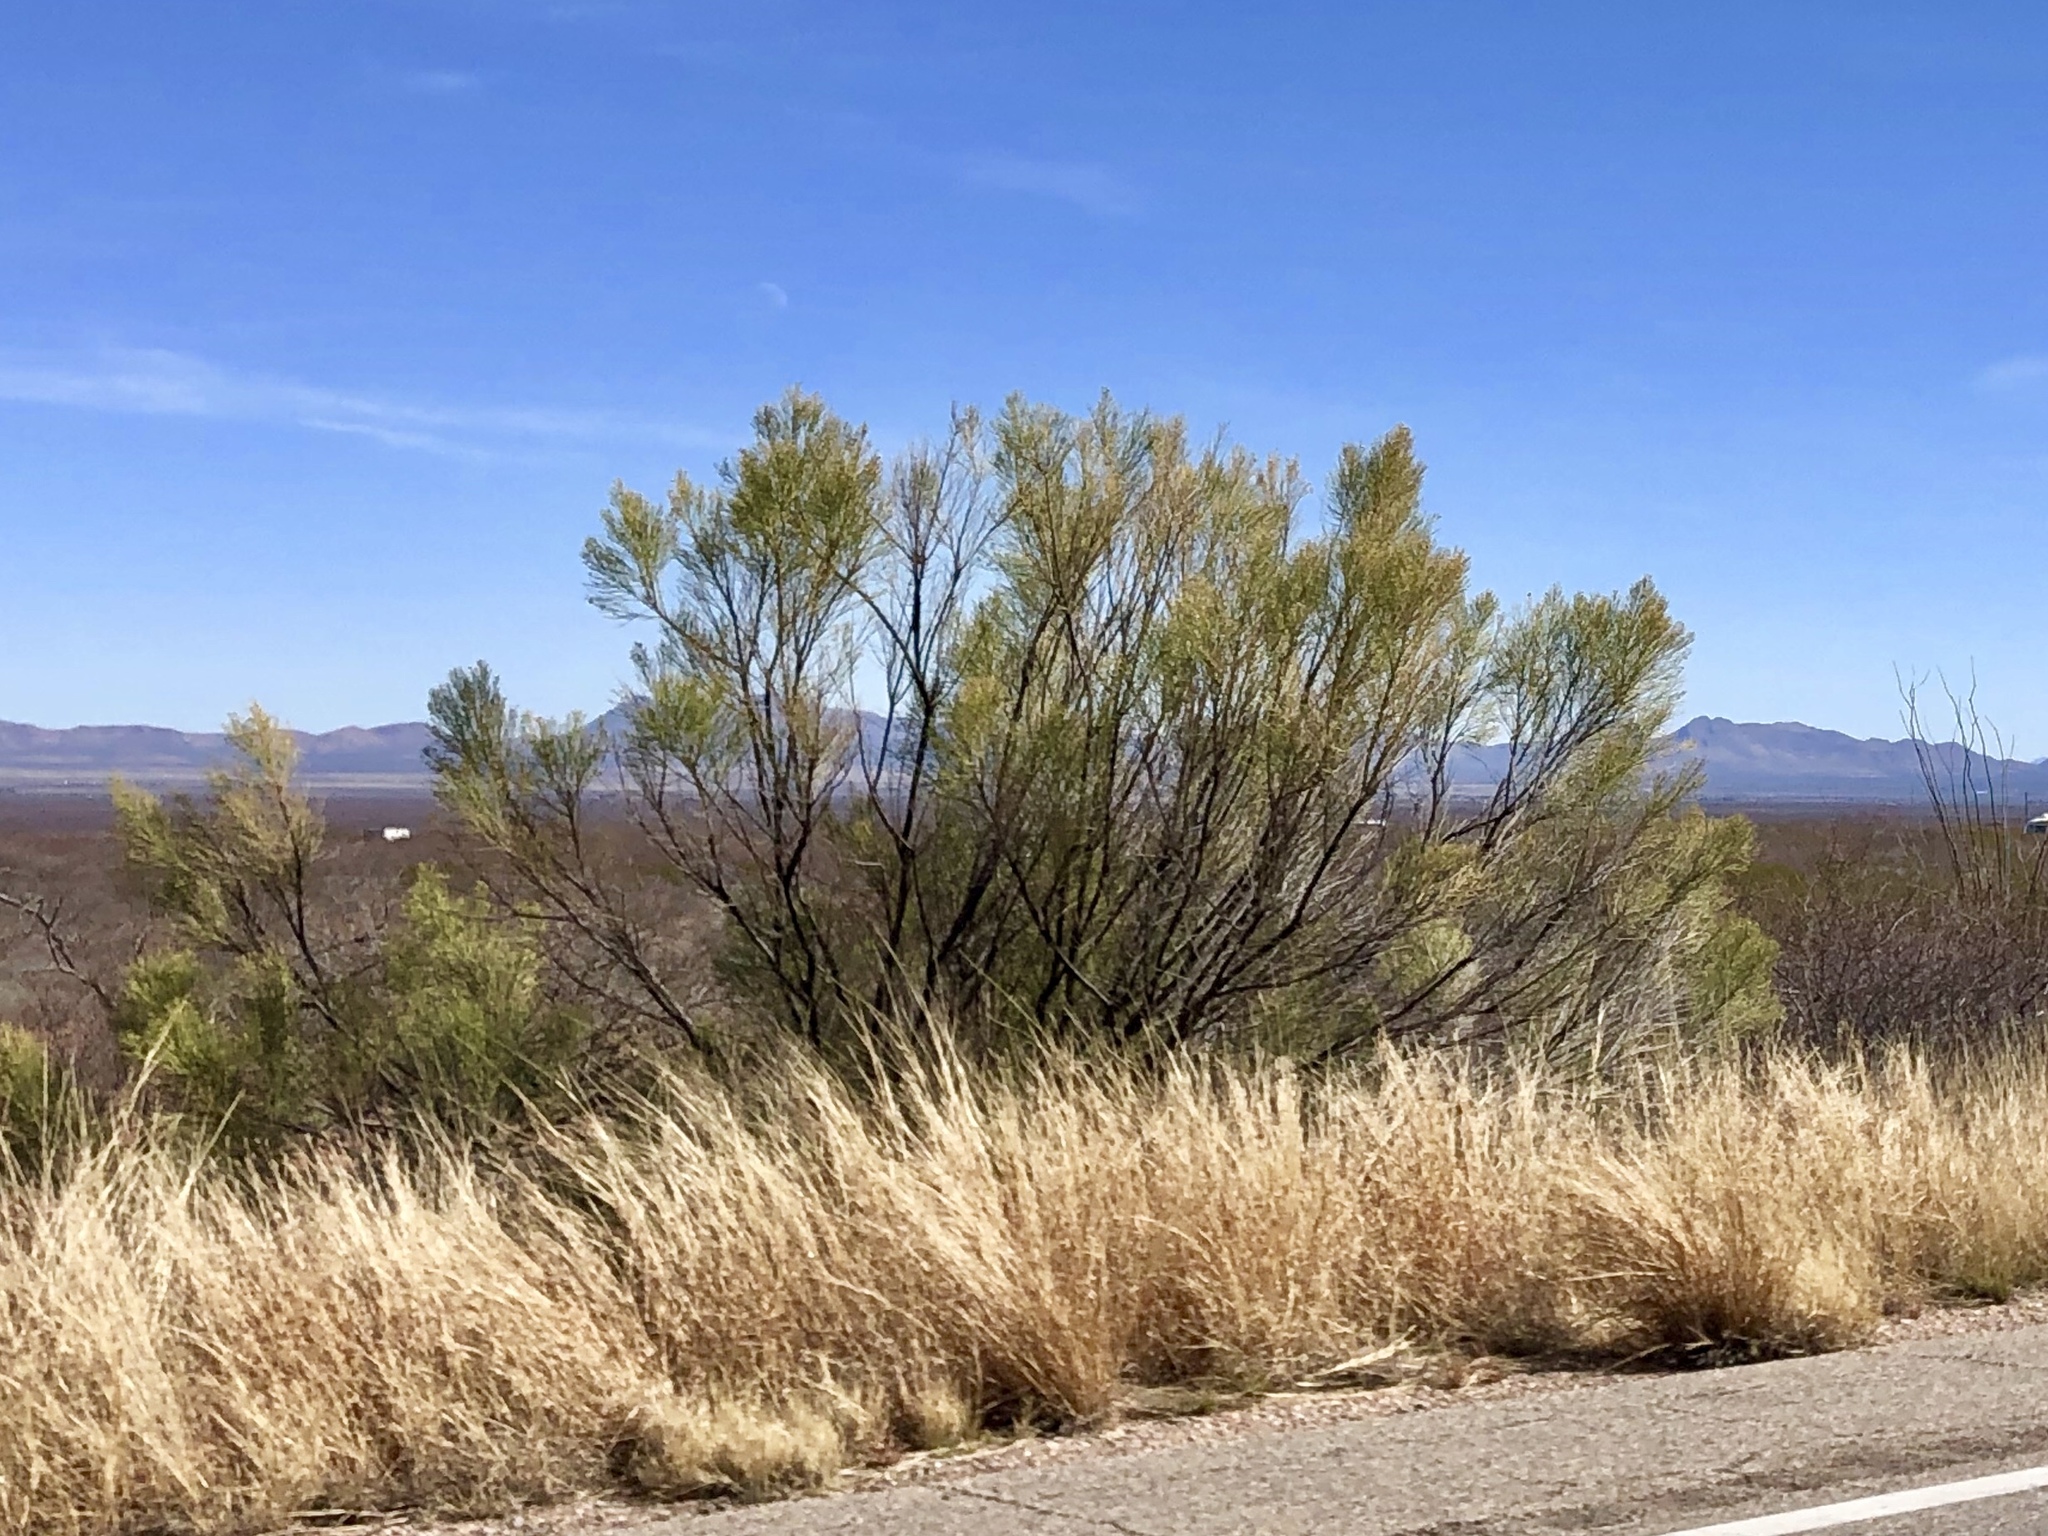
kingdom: Plantae
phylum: Tracheophyta
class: Magnoliopsida
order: Asterales
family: Asteraceae
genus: Baccharis
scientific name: Baccharis sarothroides
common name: Desert-broom
